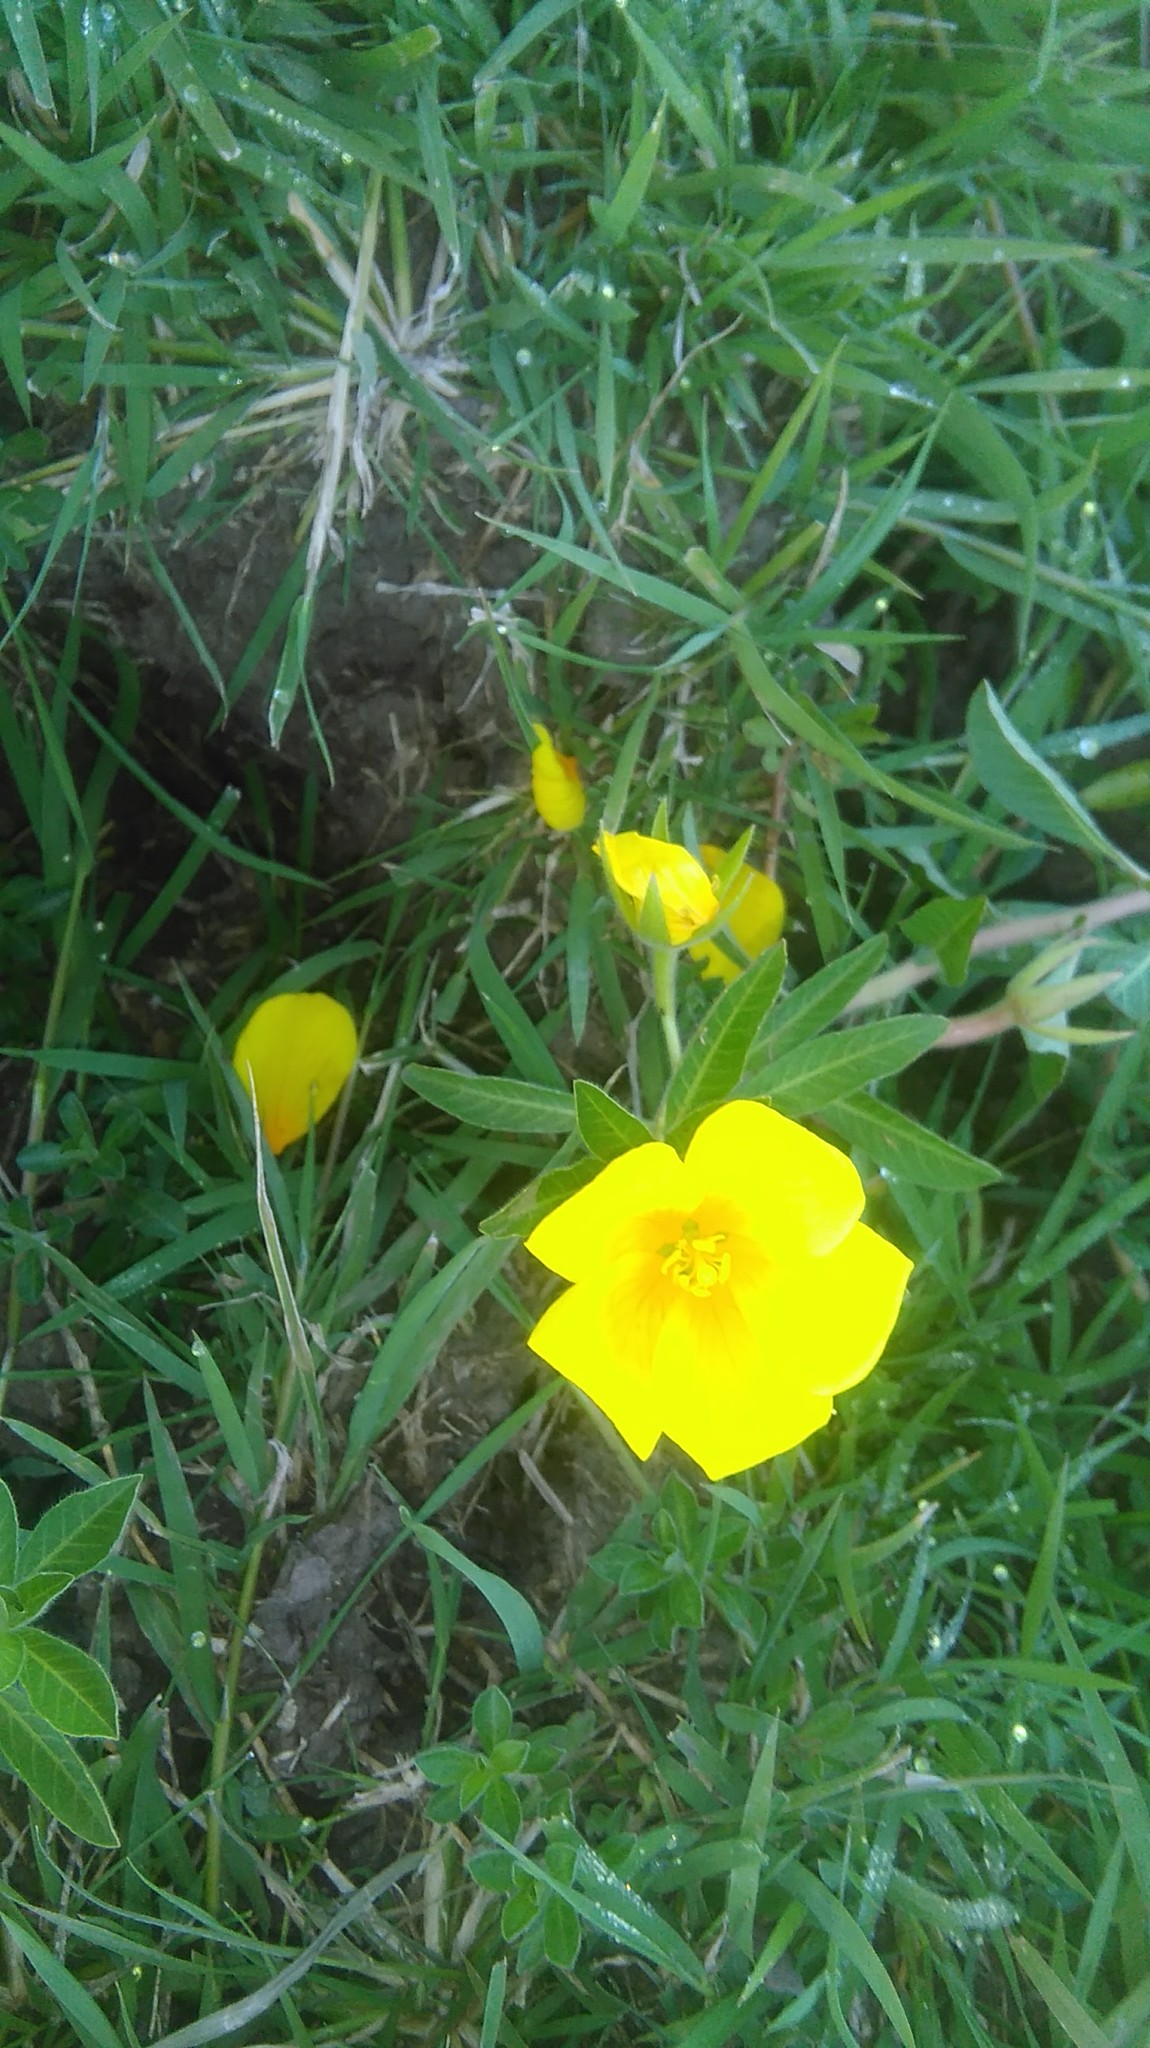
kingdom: Plantae
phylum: Tracheophyta
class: Magnoliopsida
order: Myrtales
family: Onagraceae
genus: Ludwigia
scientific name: Ludwigia peploides
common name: Floating primrose-willow
